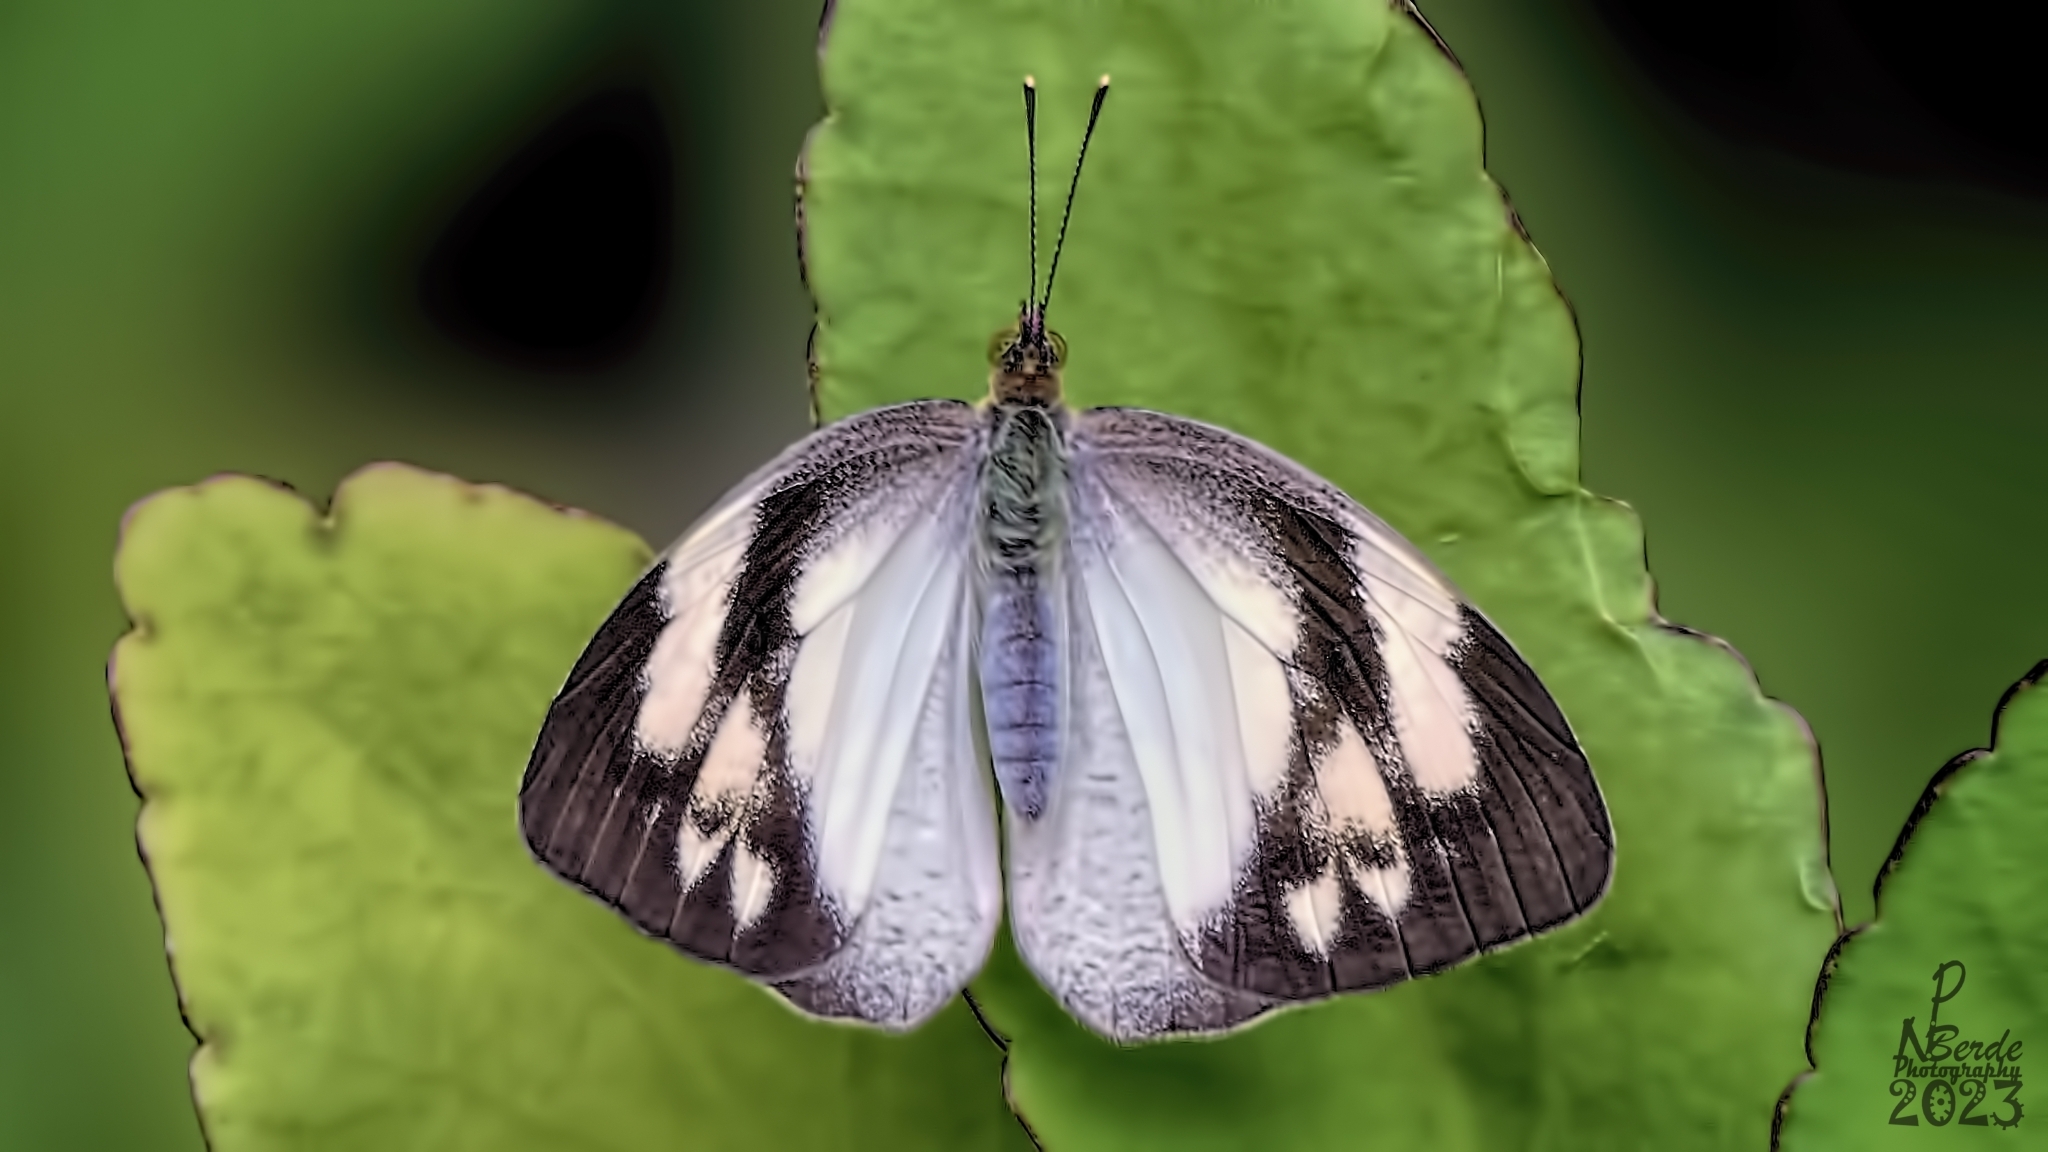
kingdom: Animalia
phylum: Arthropoda
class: Insecta
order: Lepidoptera
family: Pieridae
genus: Ixias
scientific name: Ixias pyrene
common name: Yellow orange tip
